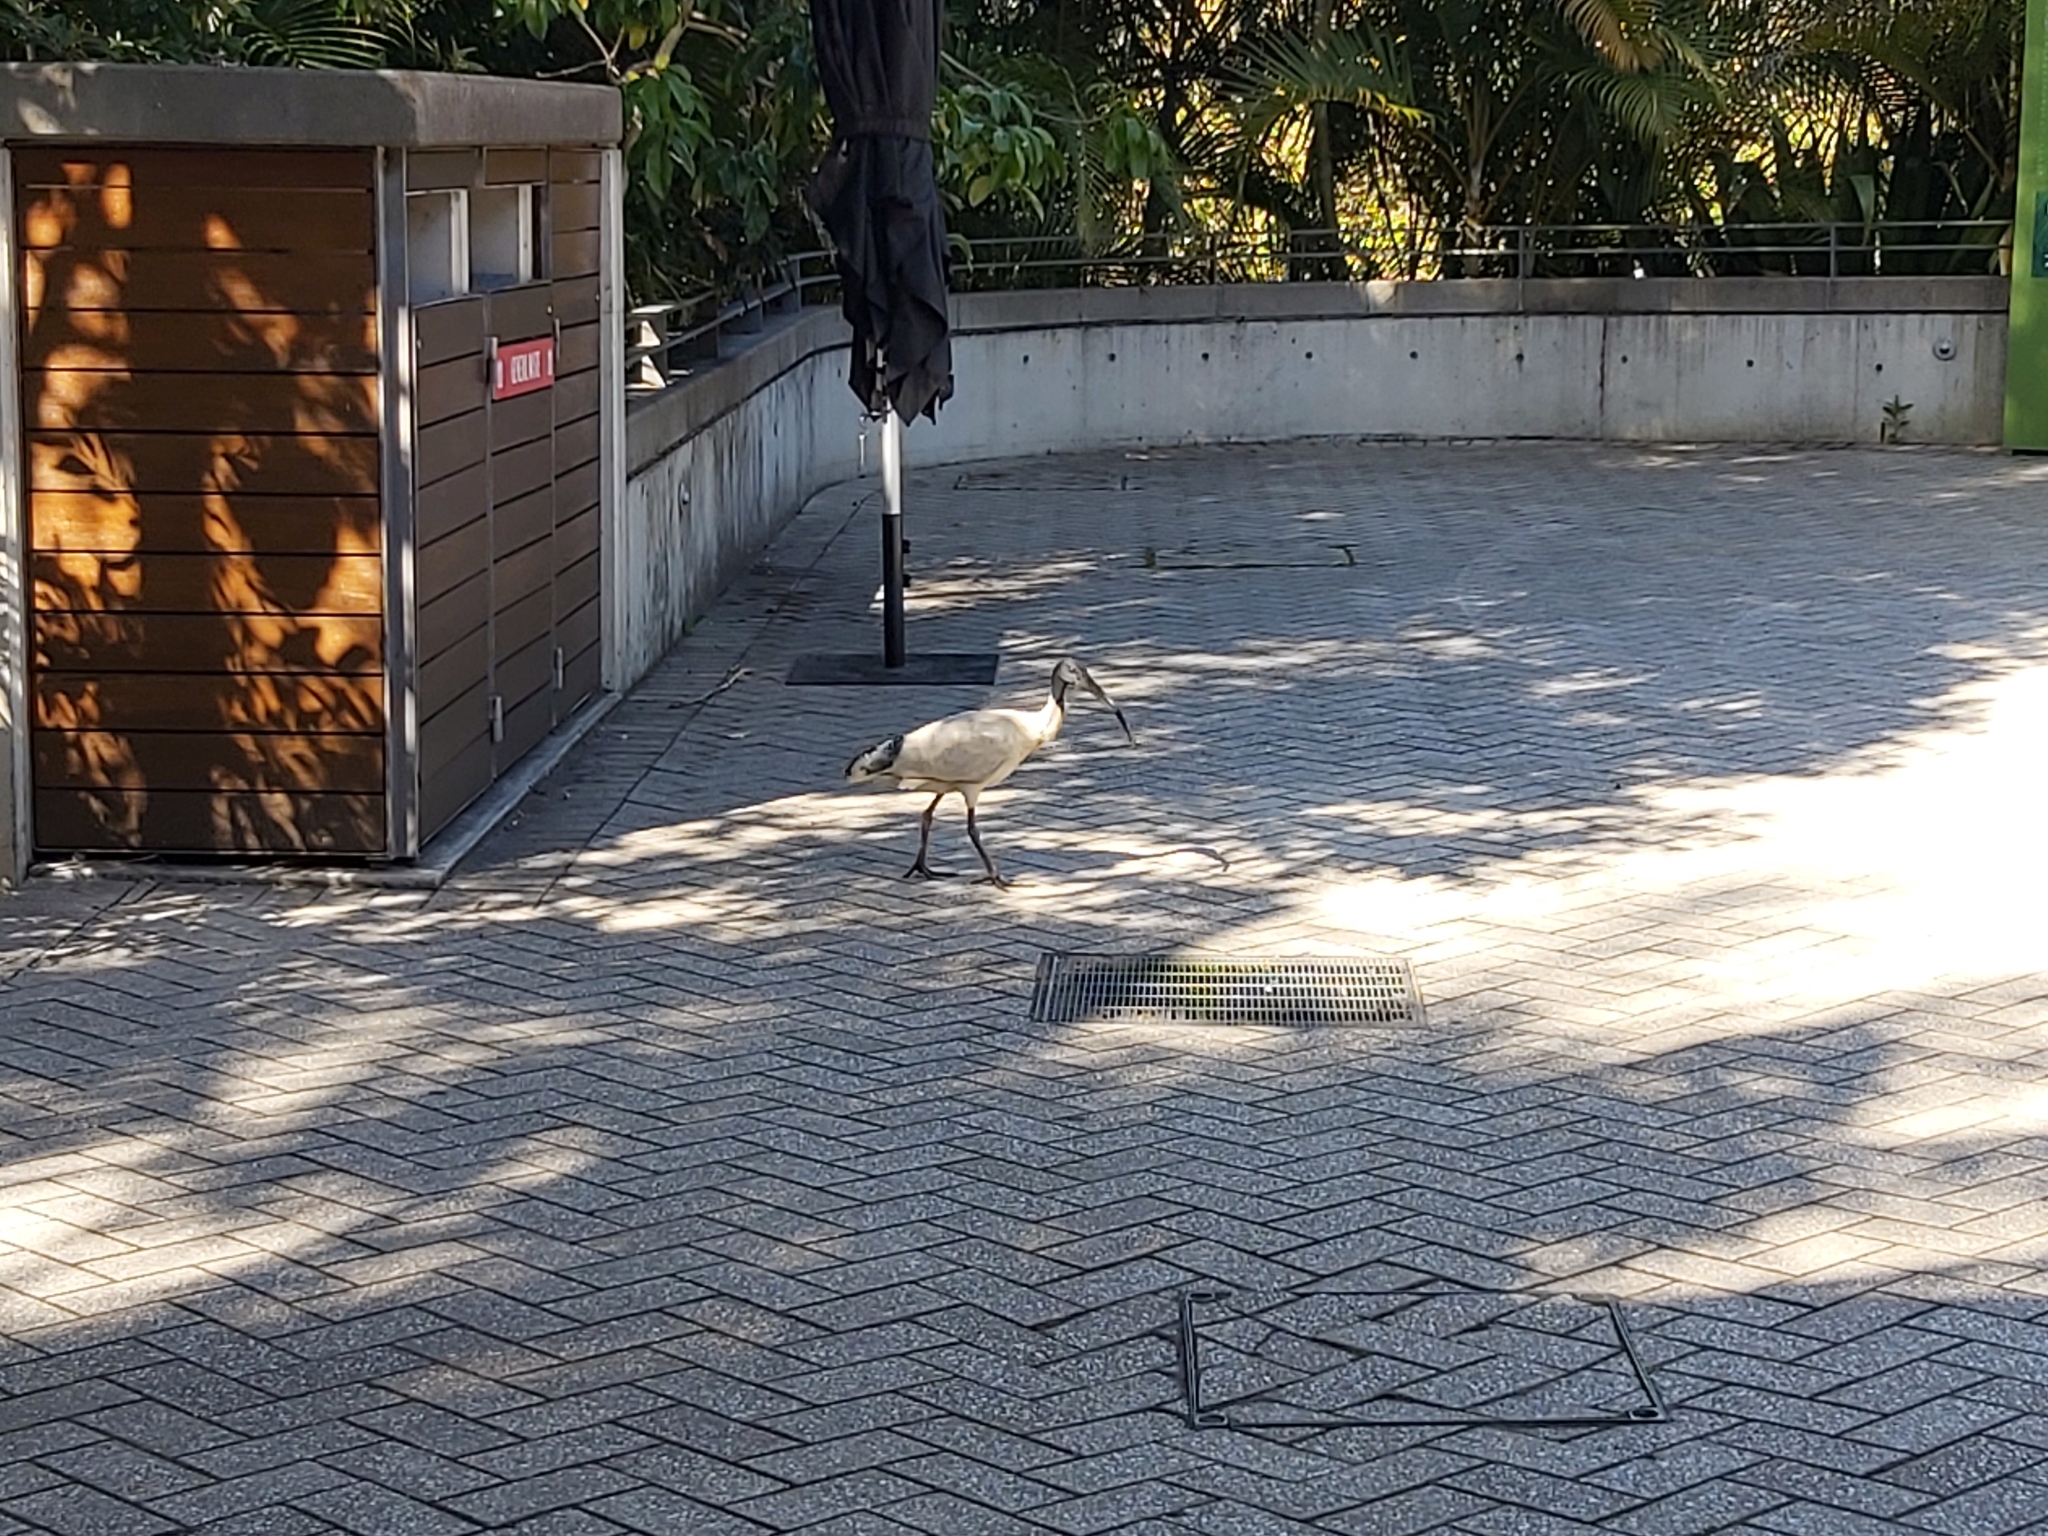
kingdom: Animalia
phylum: Chordata
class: Aves
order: Pelecaniformes
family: Threskiornithidae
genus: Threskiornis
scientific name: Threskiornis molucca
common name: Australian white ibis
